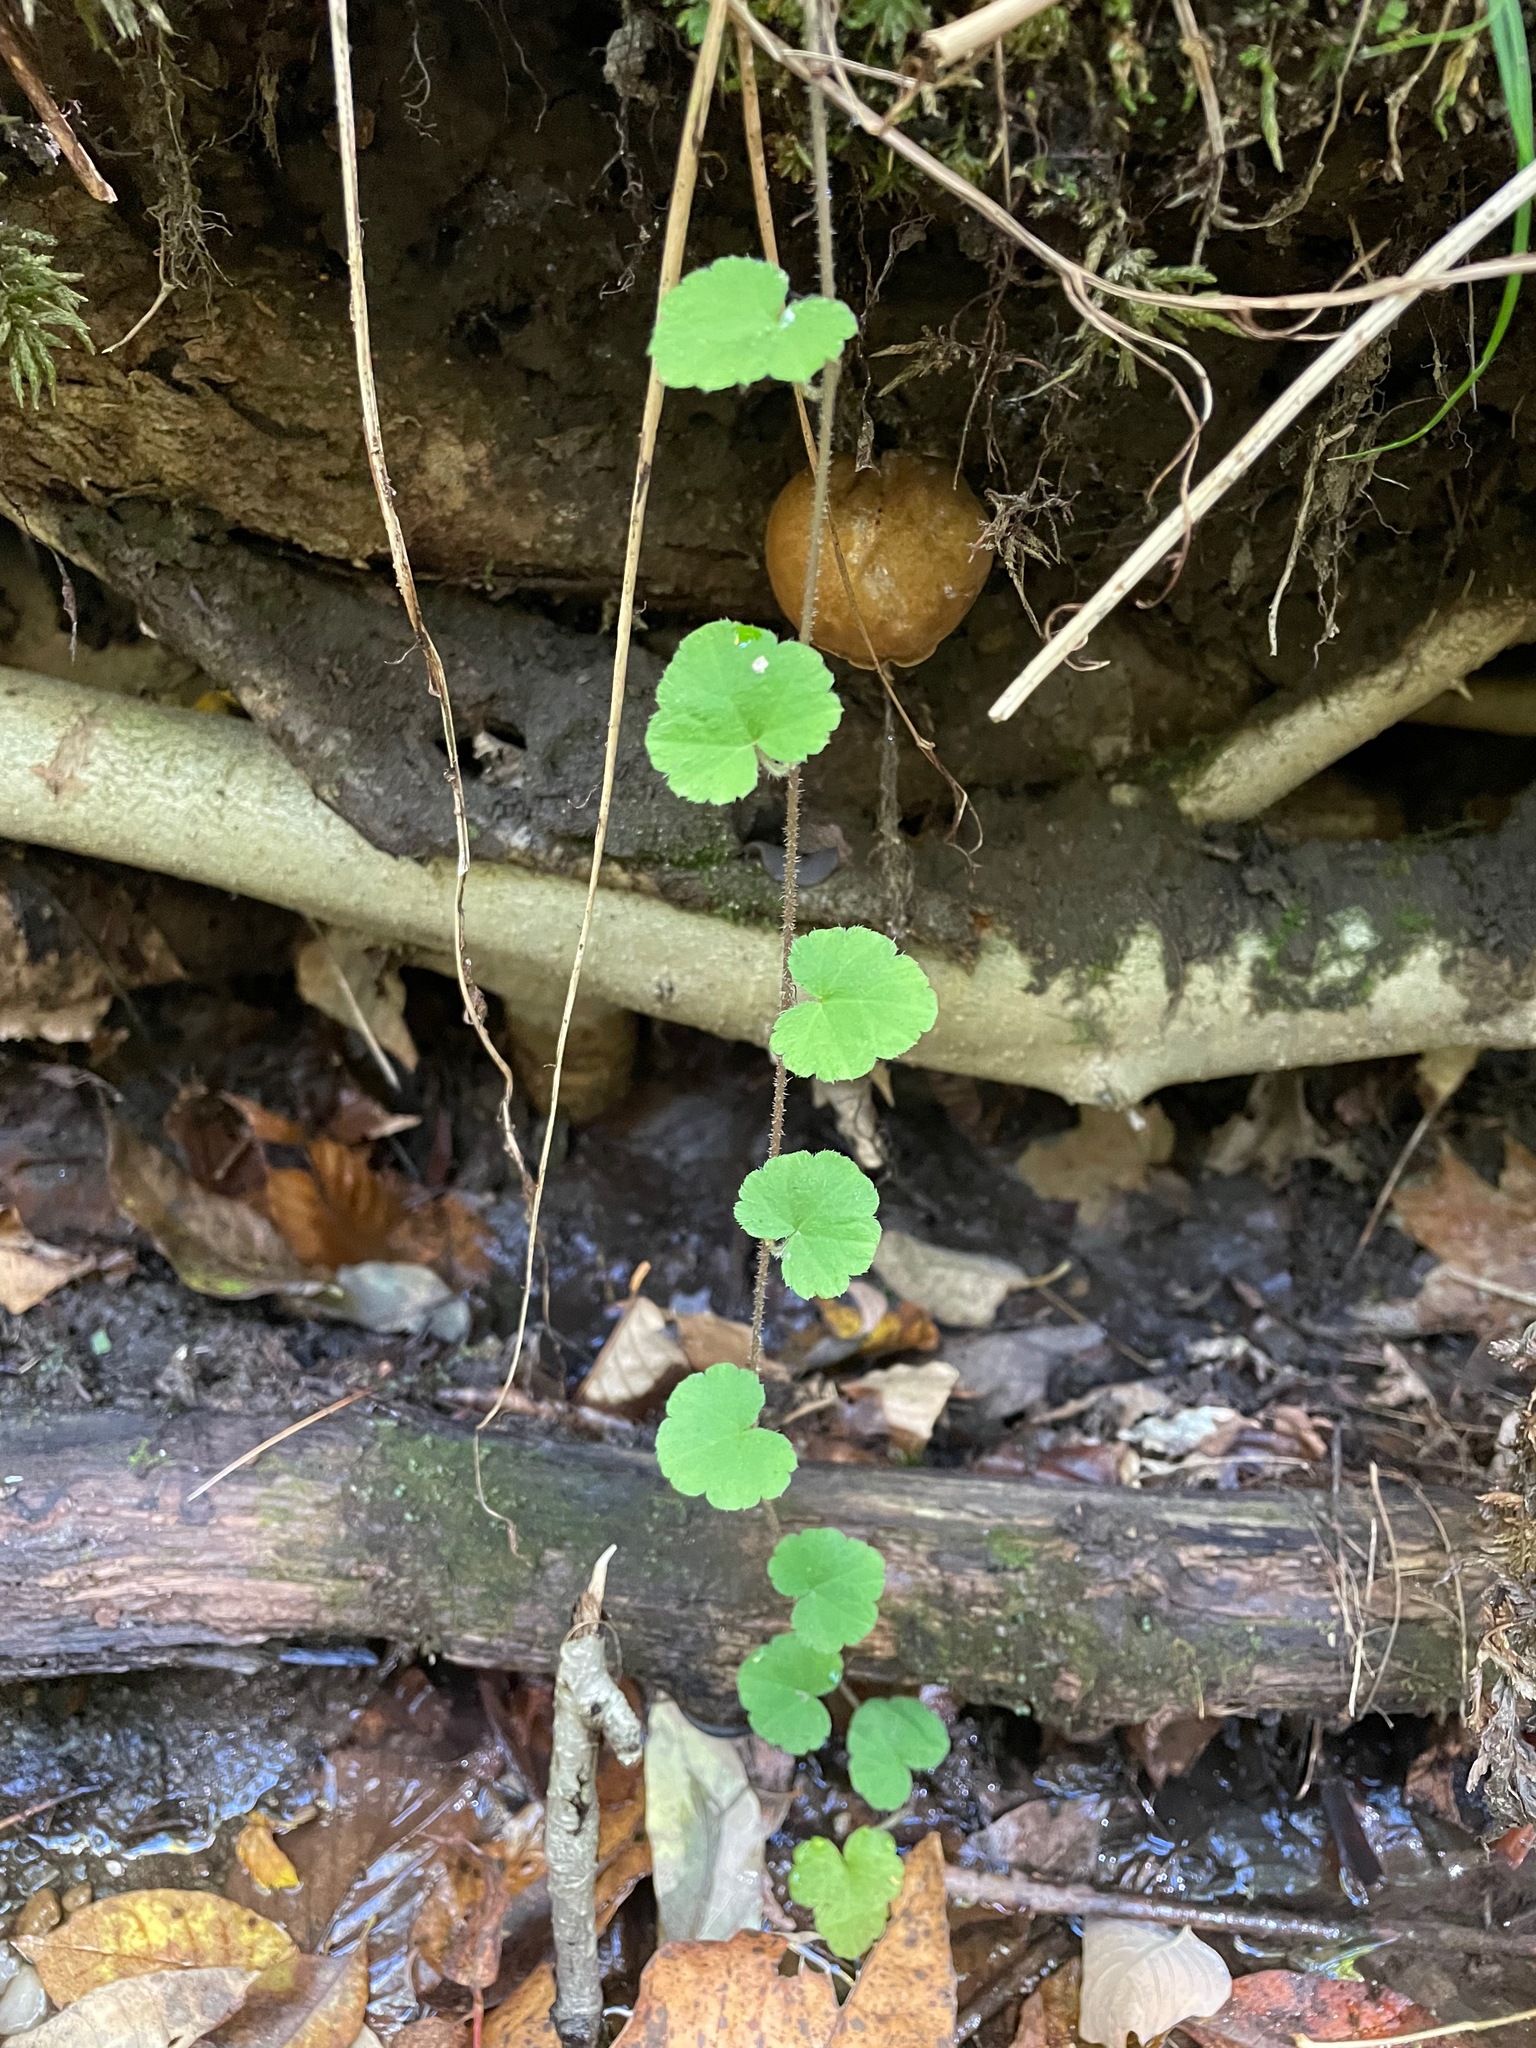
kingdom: Plantae
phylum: Tracheophyta
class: Magnoliopsida
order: Saxifragales
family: Saxifragaceae
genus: Tiarella
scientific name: Tiarella stolonifera
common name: Stoloniferous foamflower
